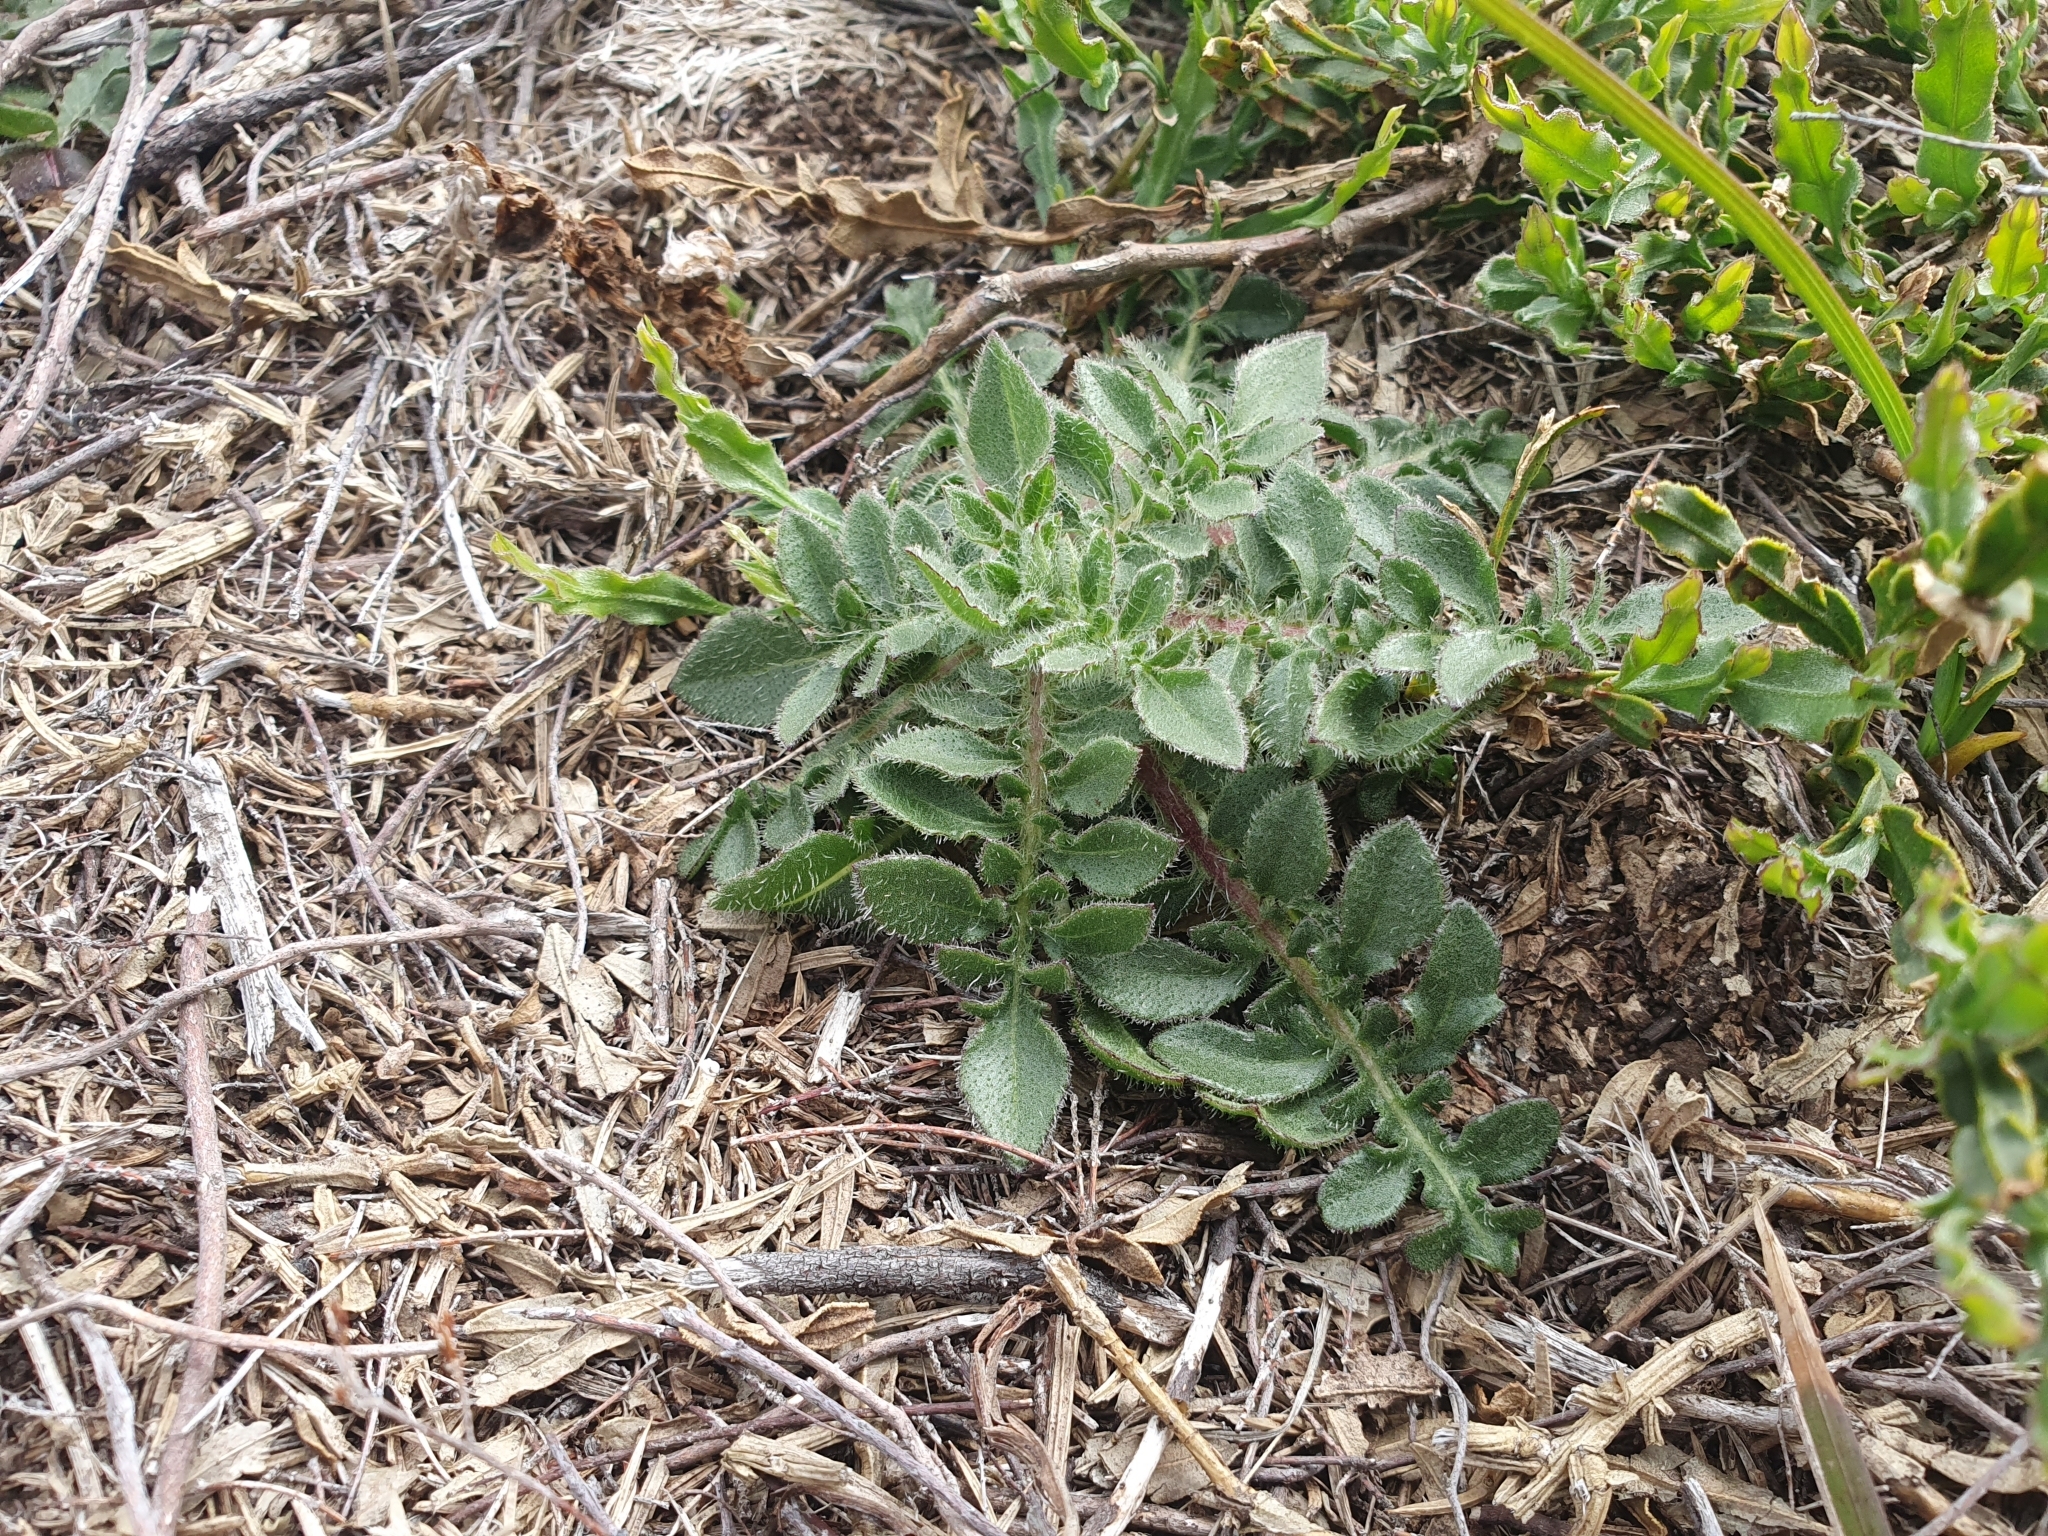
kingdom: Plantae
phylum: Tracheophyta
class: Magnoliopsida
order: Asterales
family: Asteraceae
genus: Centaurea
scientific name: Centaurea ultreiae
